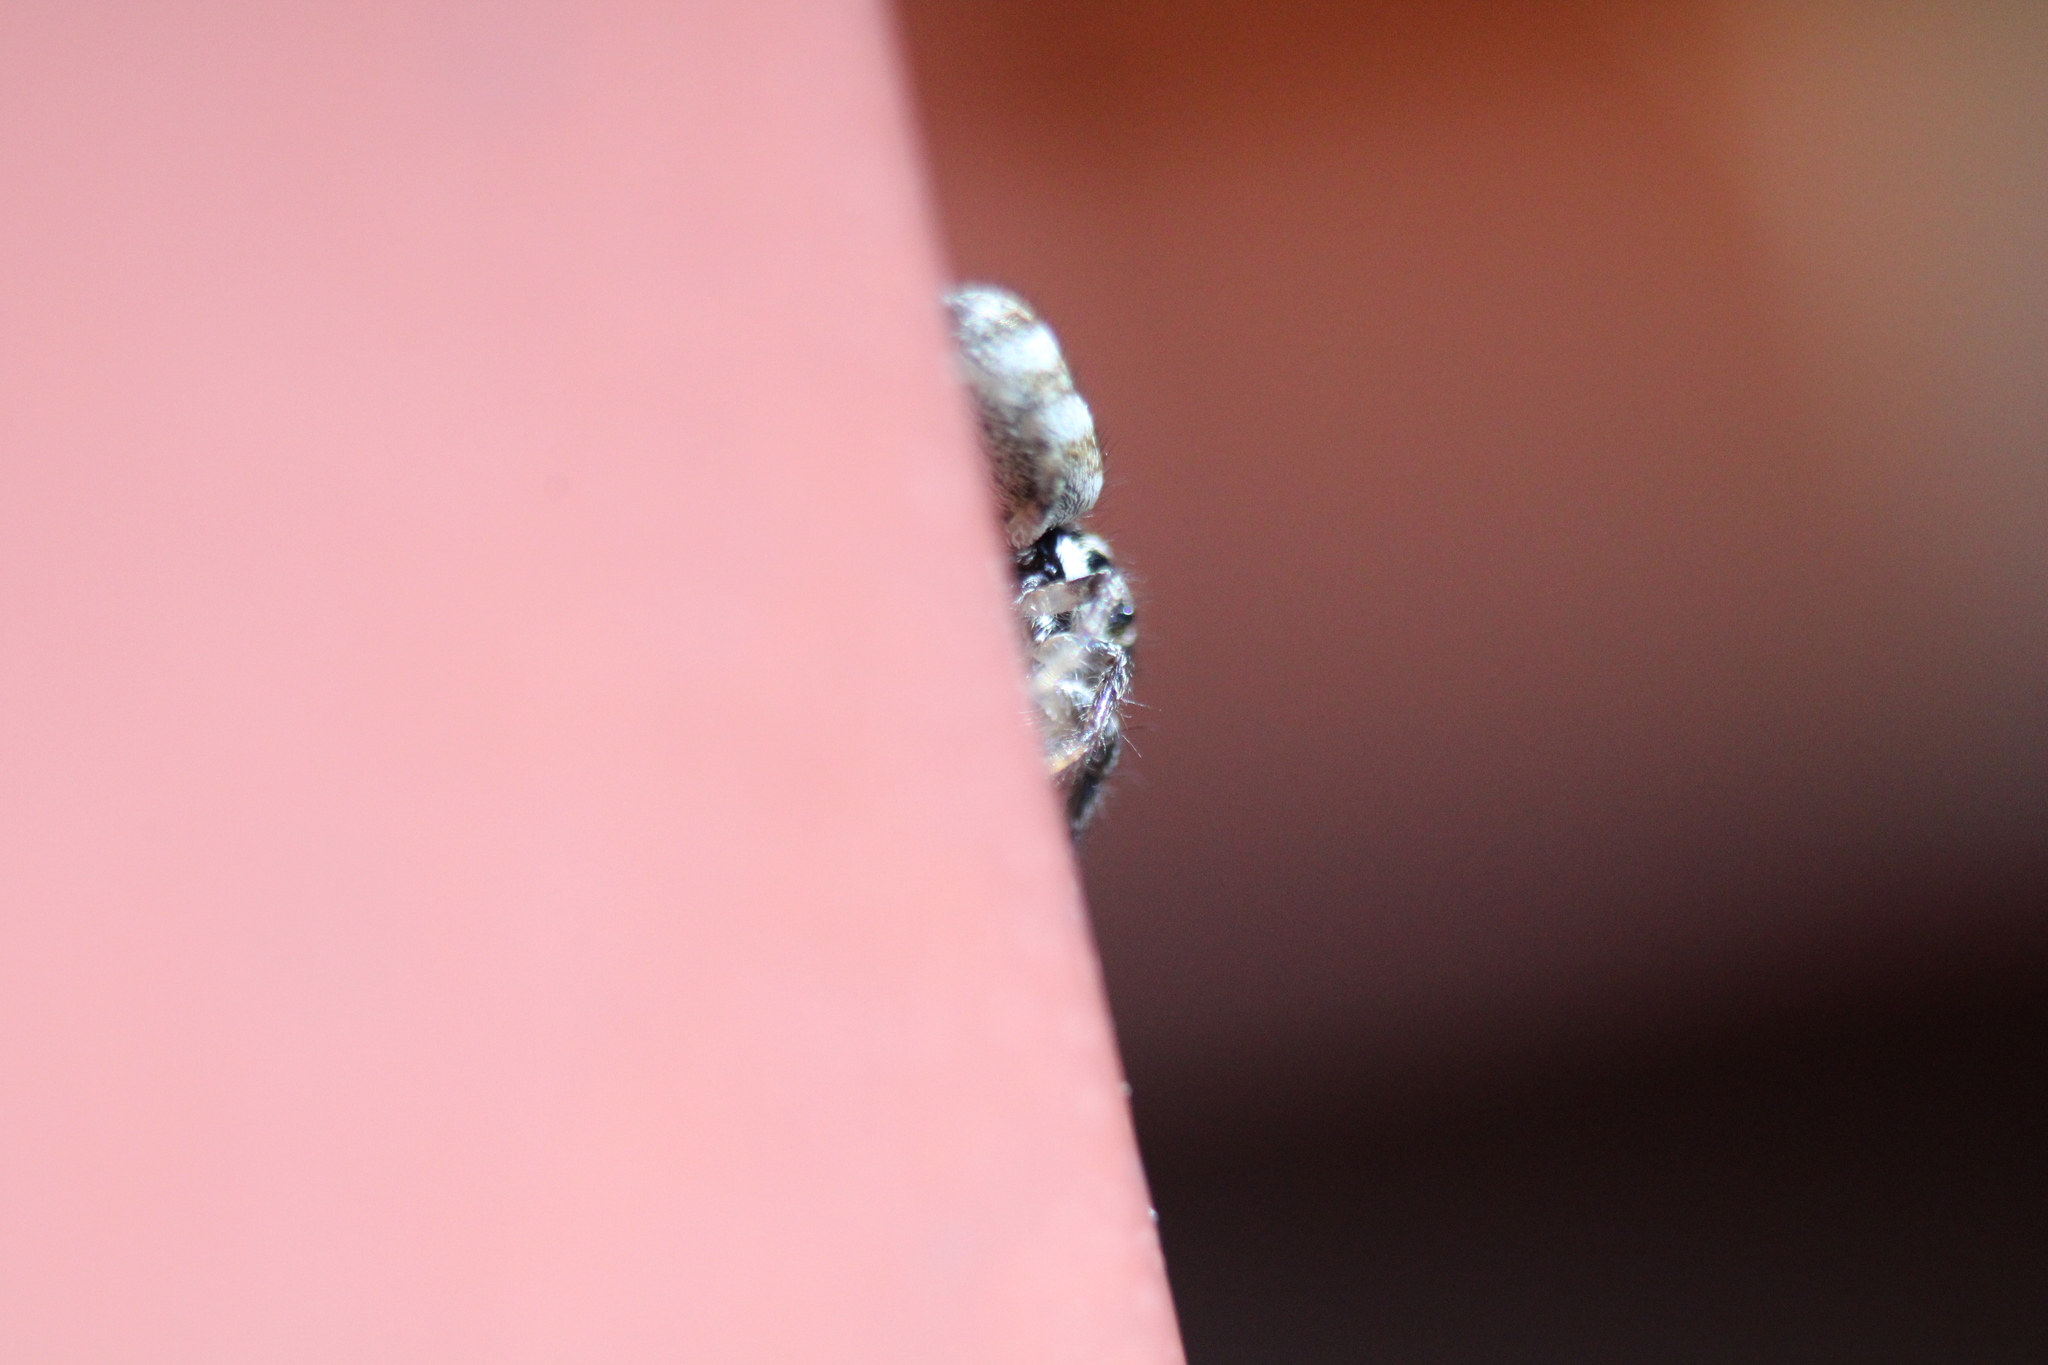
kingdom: Animalia
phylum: Arthropoda
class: Arachnida
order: Araneae
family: Salticidae
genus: Salticus
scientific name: Salticus scenicus
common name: Zebra jumper
